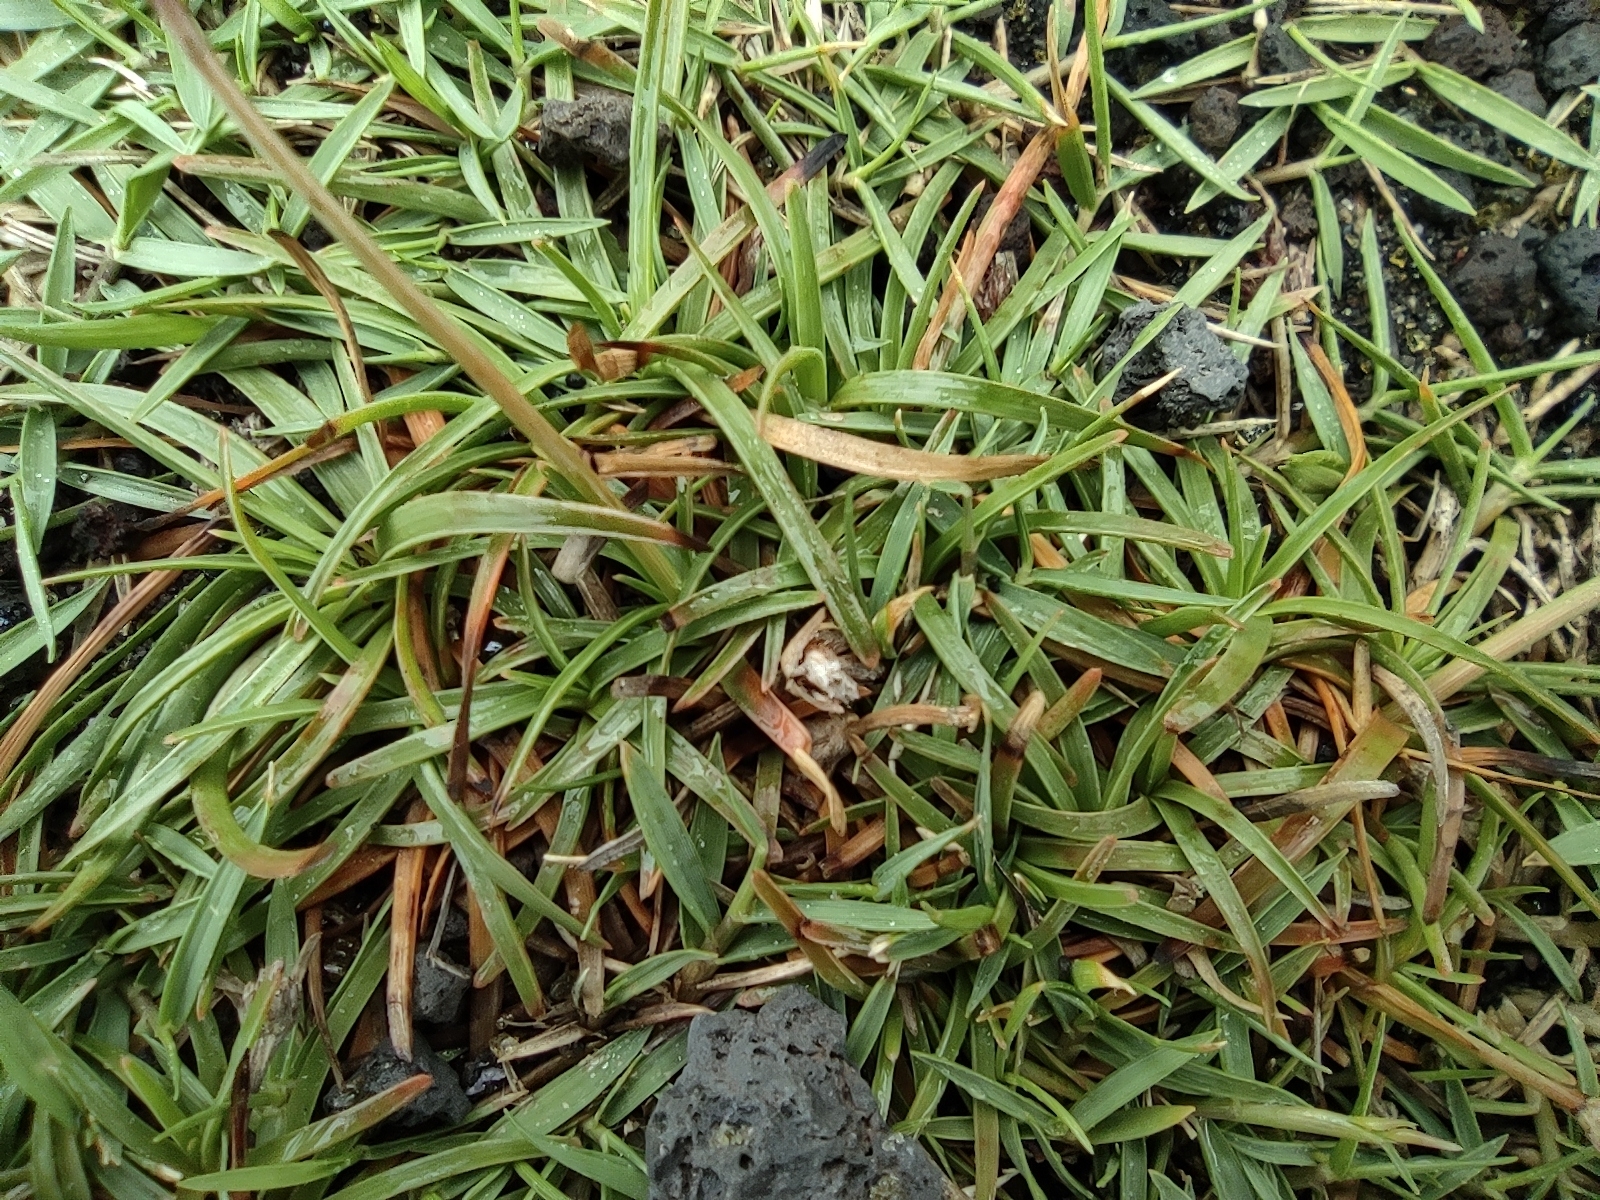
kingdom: Plantae
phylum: Tracheophyta
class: Liliopsida
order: Poales
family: Cyperaceae
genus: Fimbristylis
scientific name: Fimbristylis cymosa
